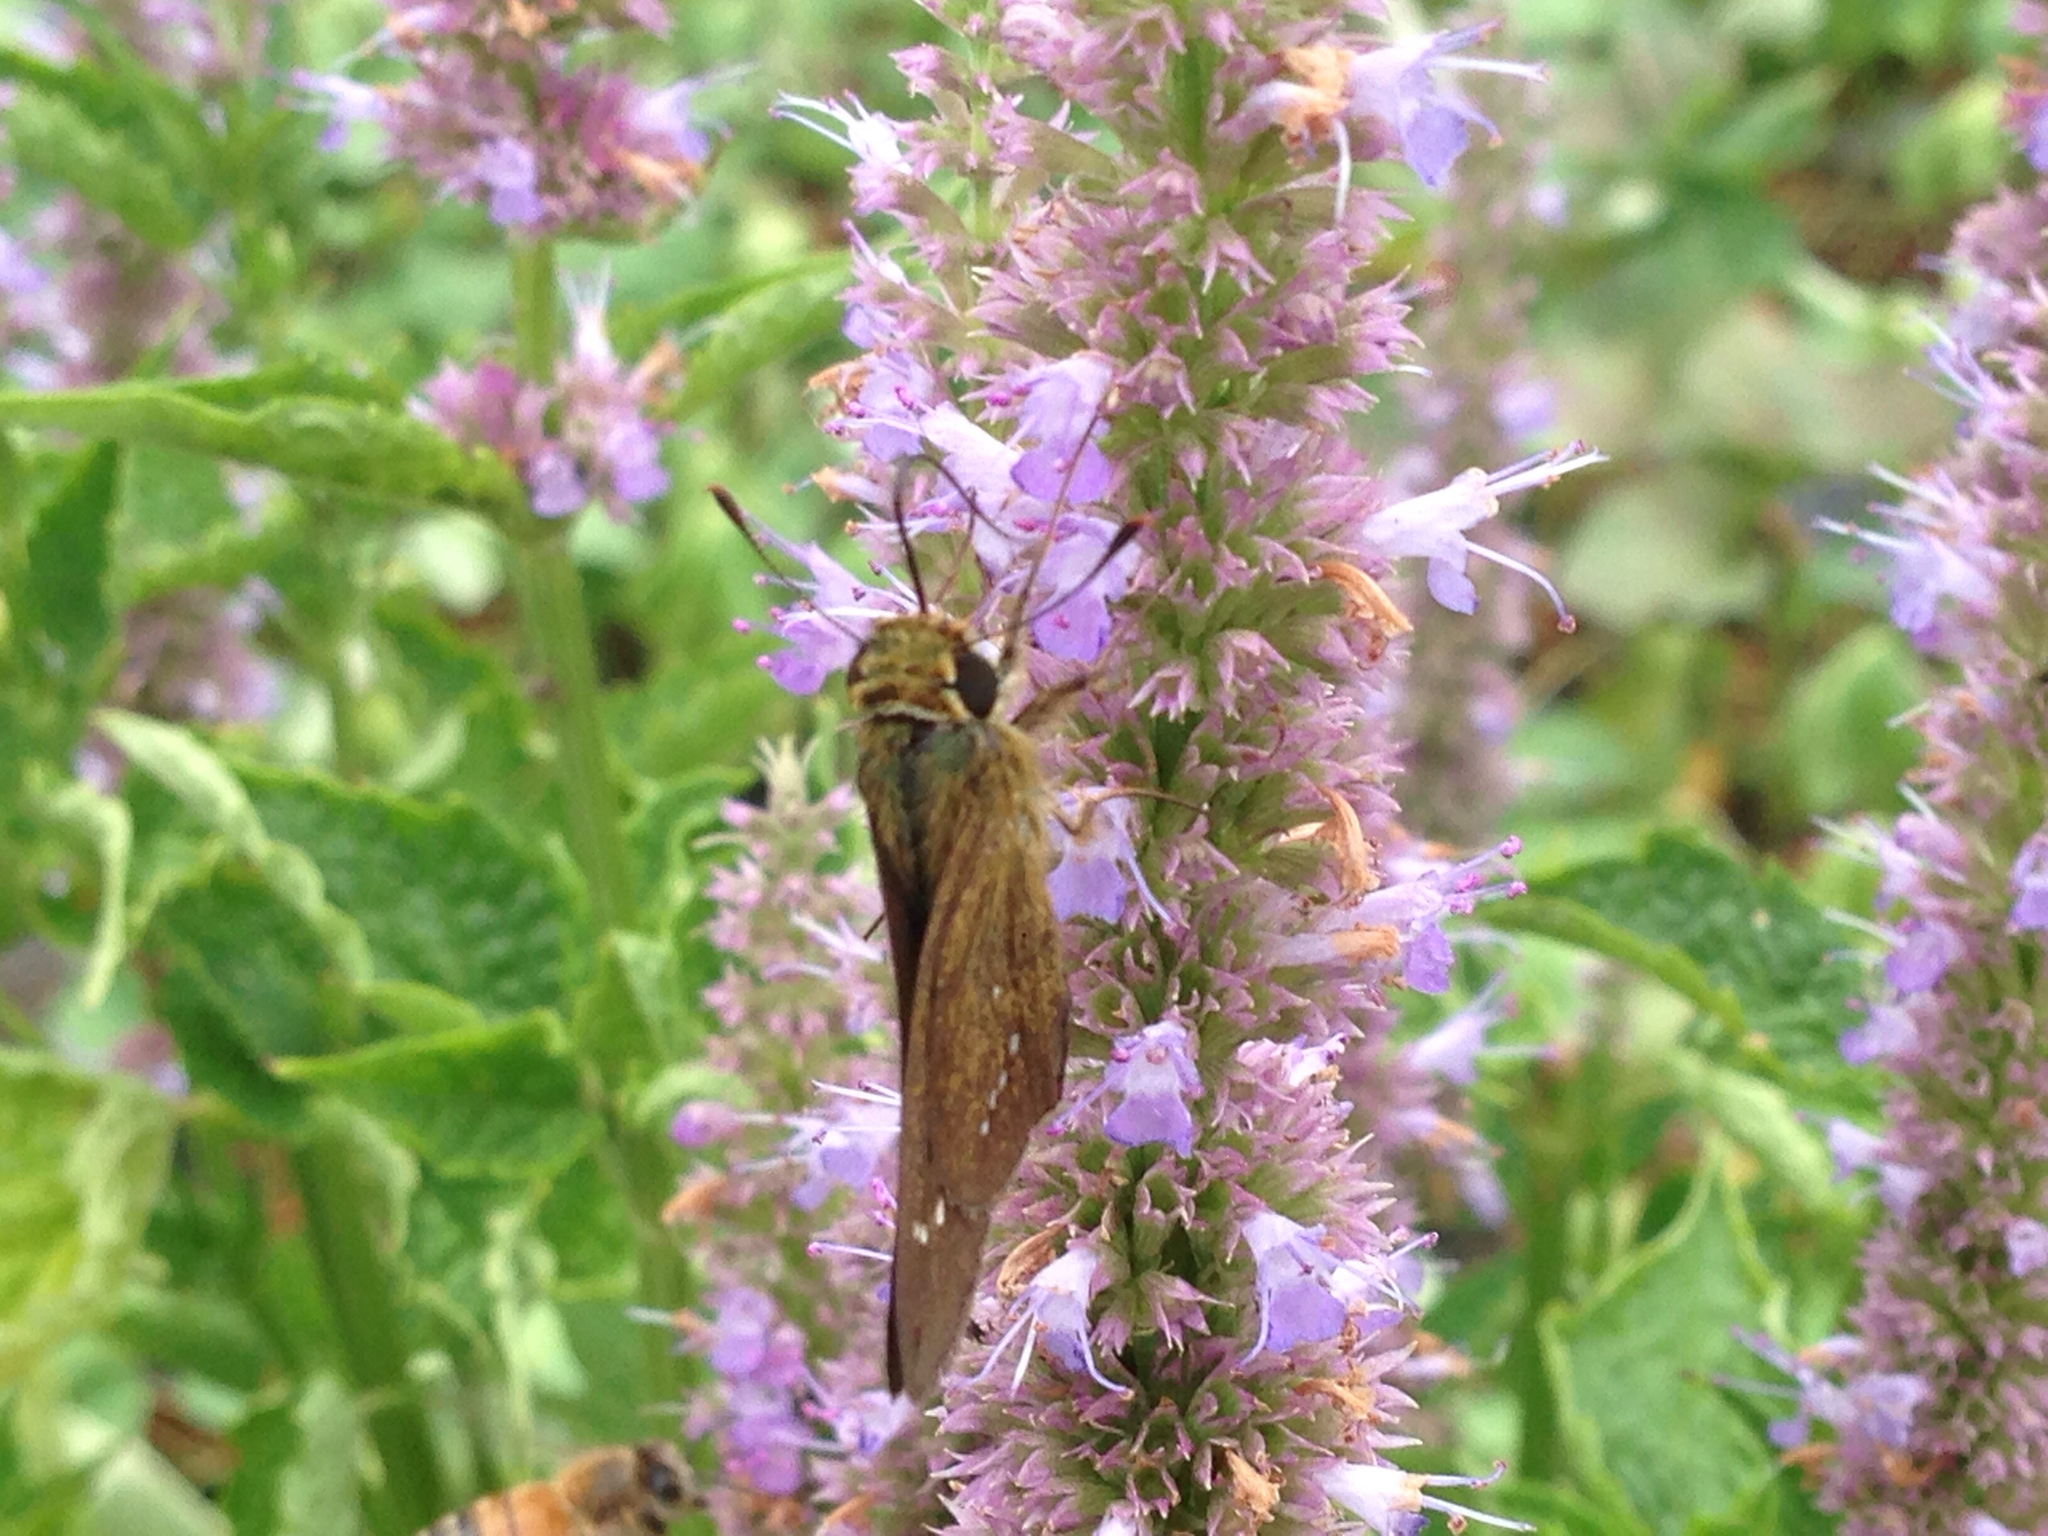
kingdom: Animalia
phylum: Arthropoda
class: Insecta
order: Lepidoptera
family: Hesperiidae
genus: Parnara
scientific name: Parnara guttatus
